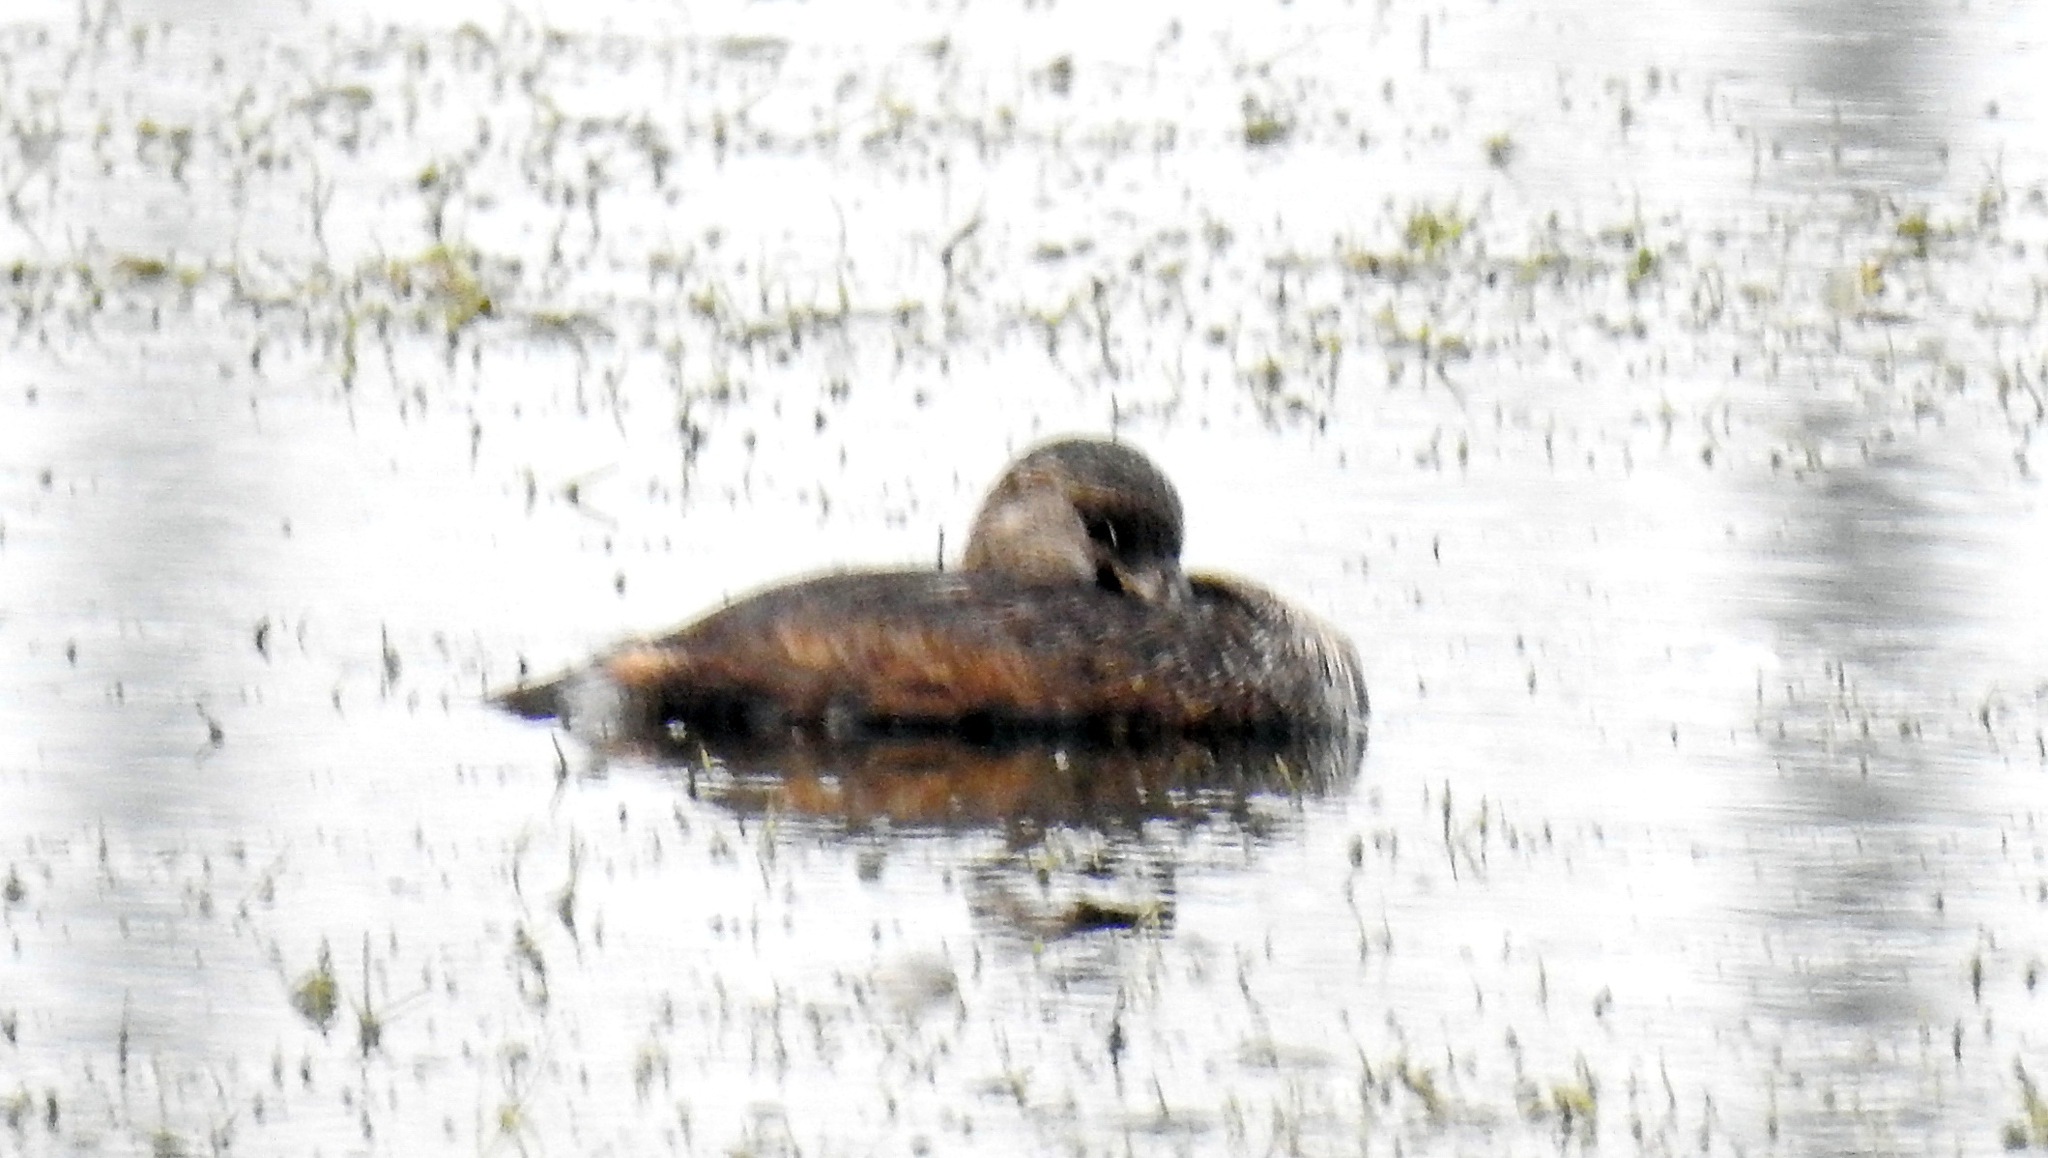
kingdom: Animalia
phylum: Chordata
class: Aves
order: Podicipediformes
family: Podicipedidae
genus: Podilymbus
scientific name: Podilymbus podiceps
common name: Pied-billed grebe
